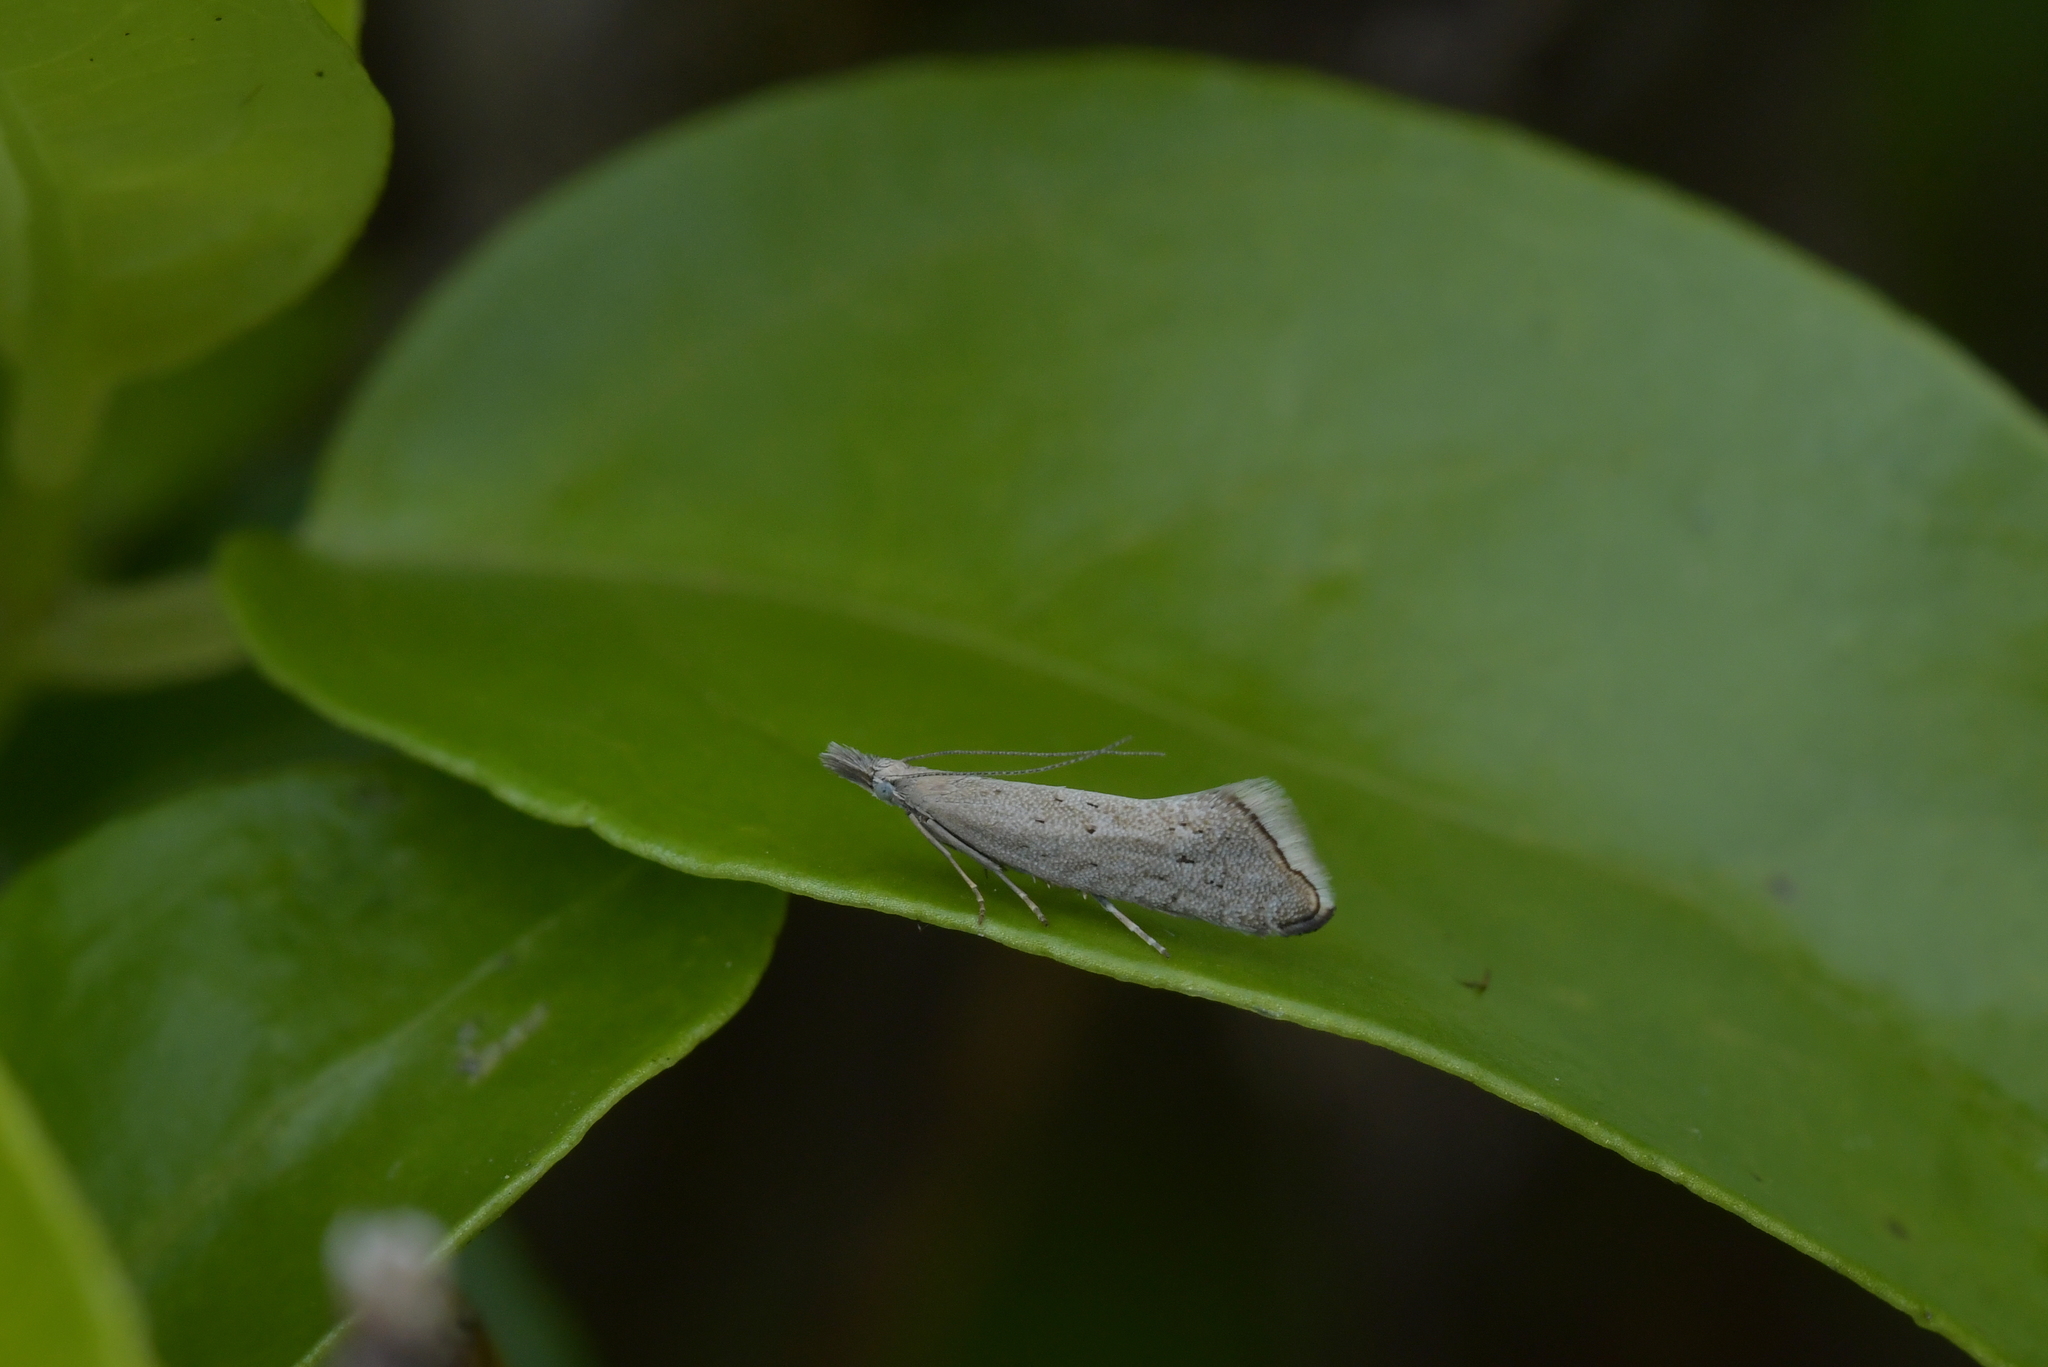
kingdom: Animalia
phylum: Arthropoda
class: Insecta
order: Lepidoptera
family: Glyphipterigidae
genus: Glyphipterix
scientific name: Glyphipterix achlyoessa
